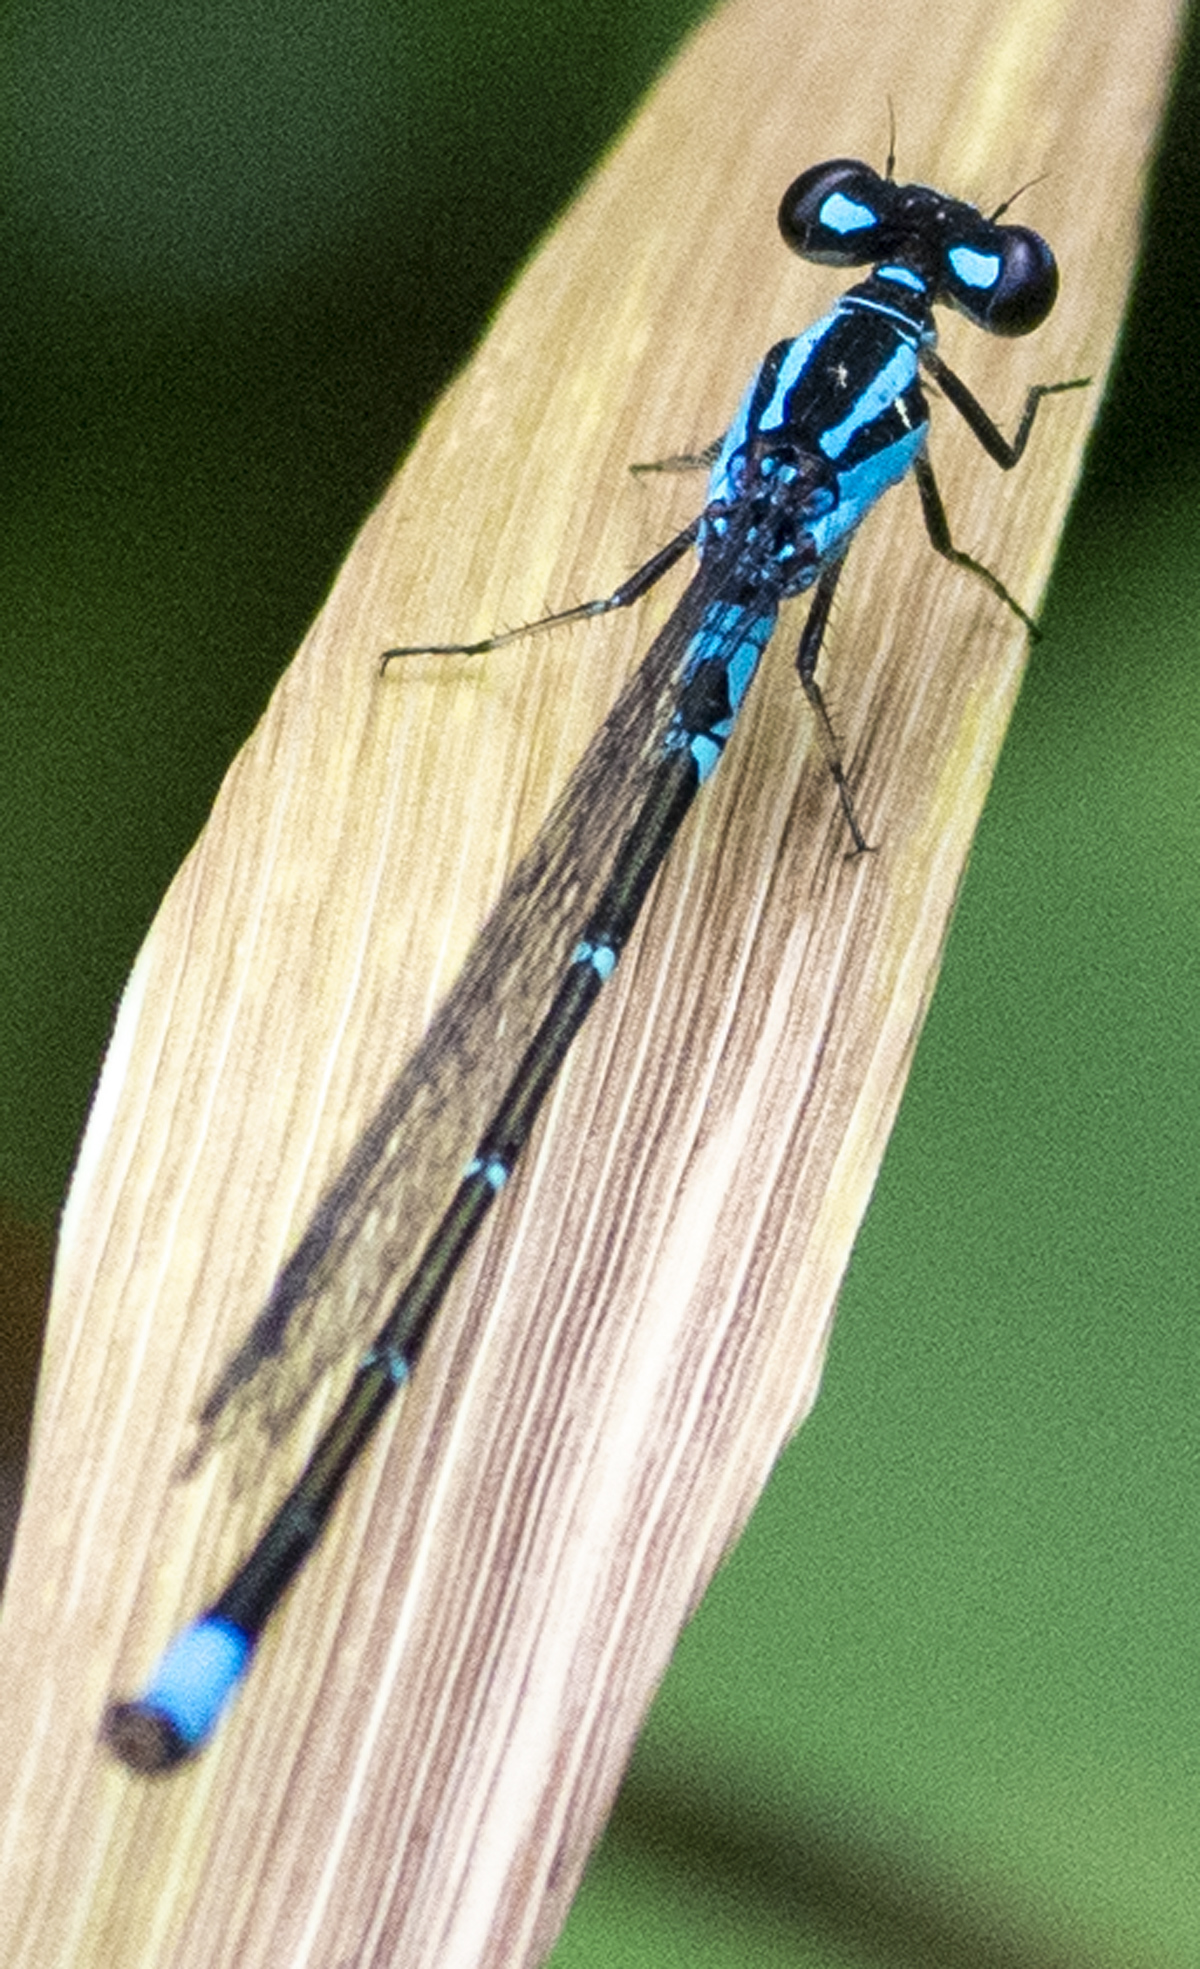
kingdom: Animalia
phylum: Arthropoda
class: Insecta
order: Odonata
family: Coenagrionidae
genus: Enallagma
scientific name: Enallagma geminatum
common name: Skimming bluet
